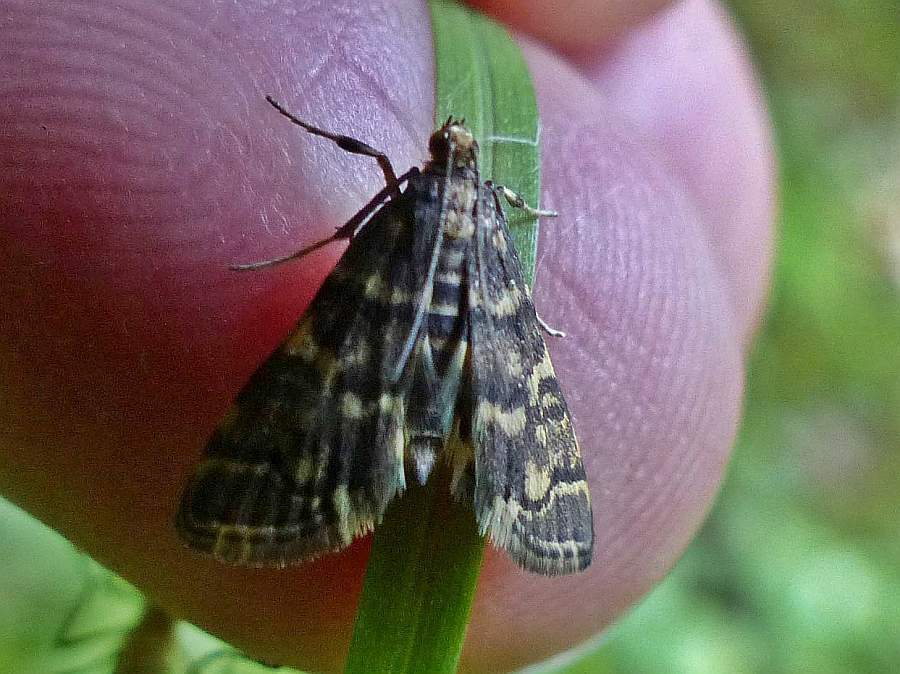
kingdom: Animalia
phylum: Arthropoda
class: Insecta
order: Lepidoptera
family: Crambidae
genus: Anageshna
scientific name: Anageshna primordialis
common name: Yellow-spotted webworm moth
